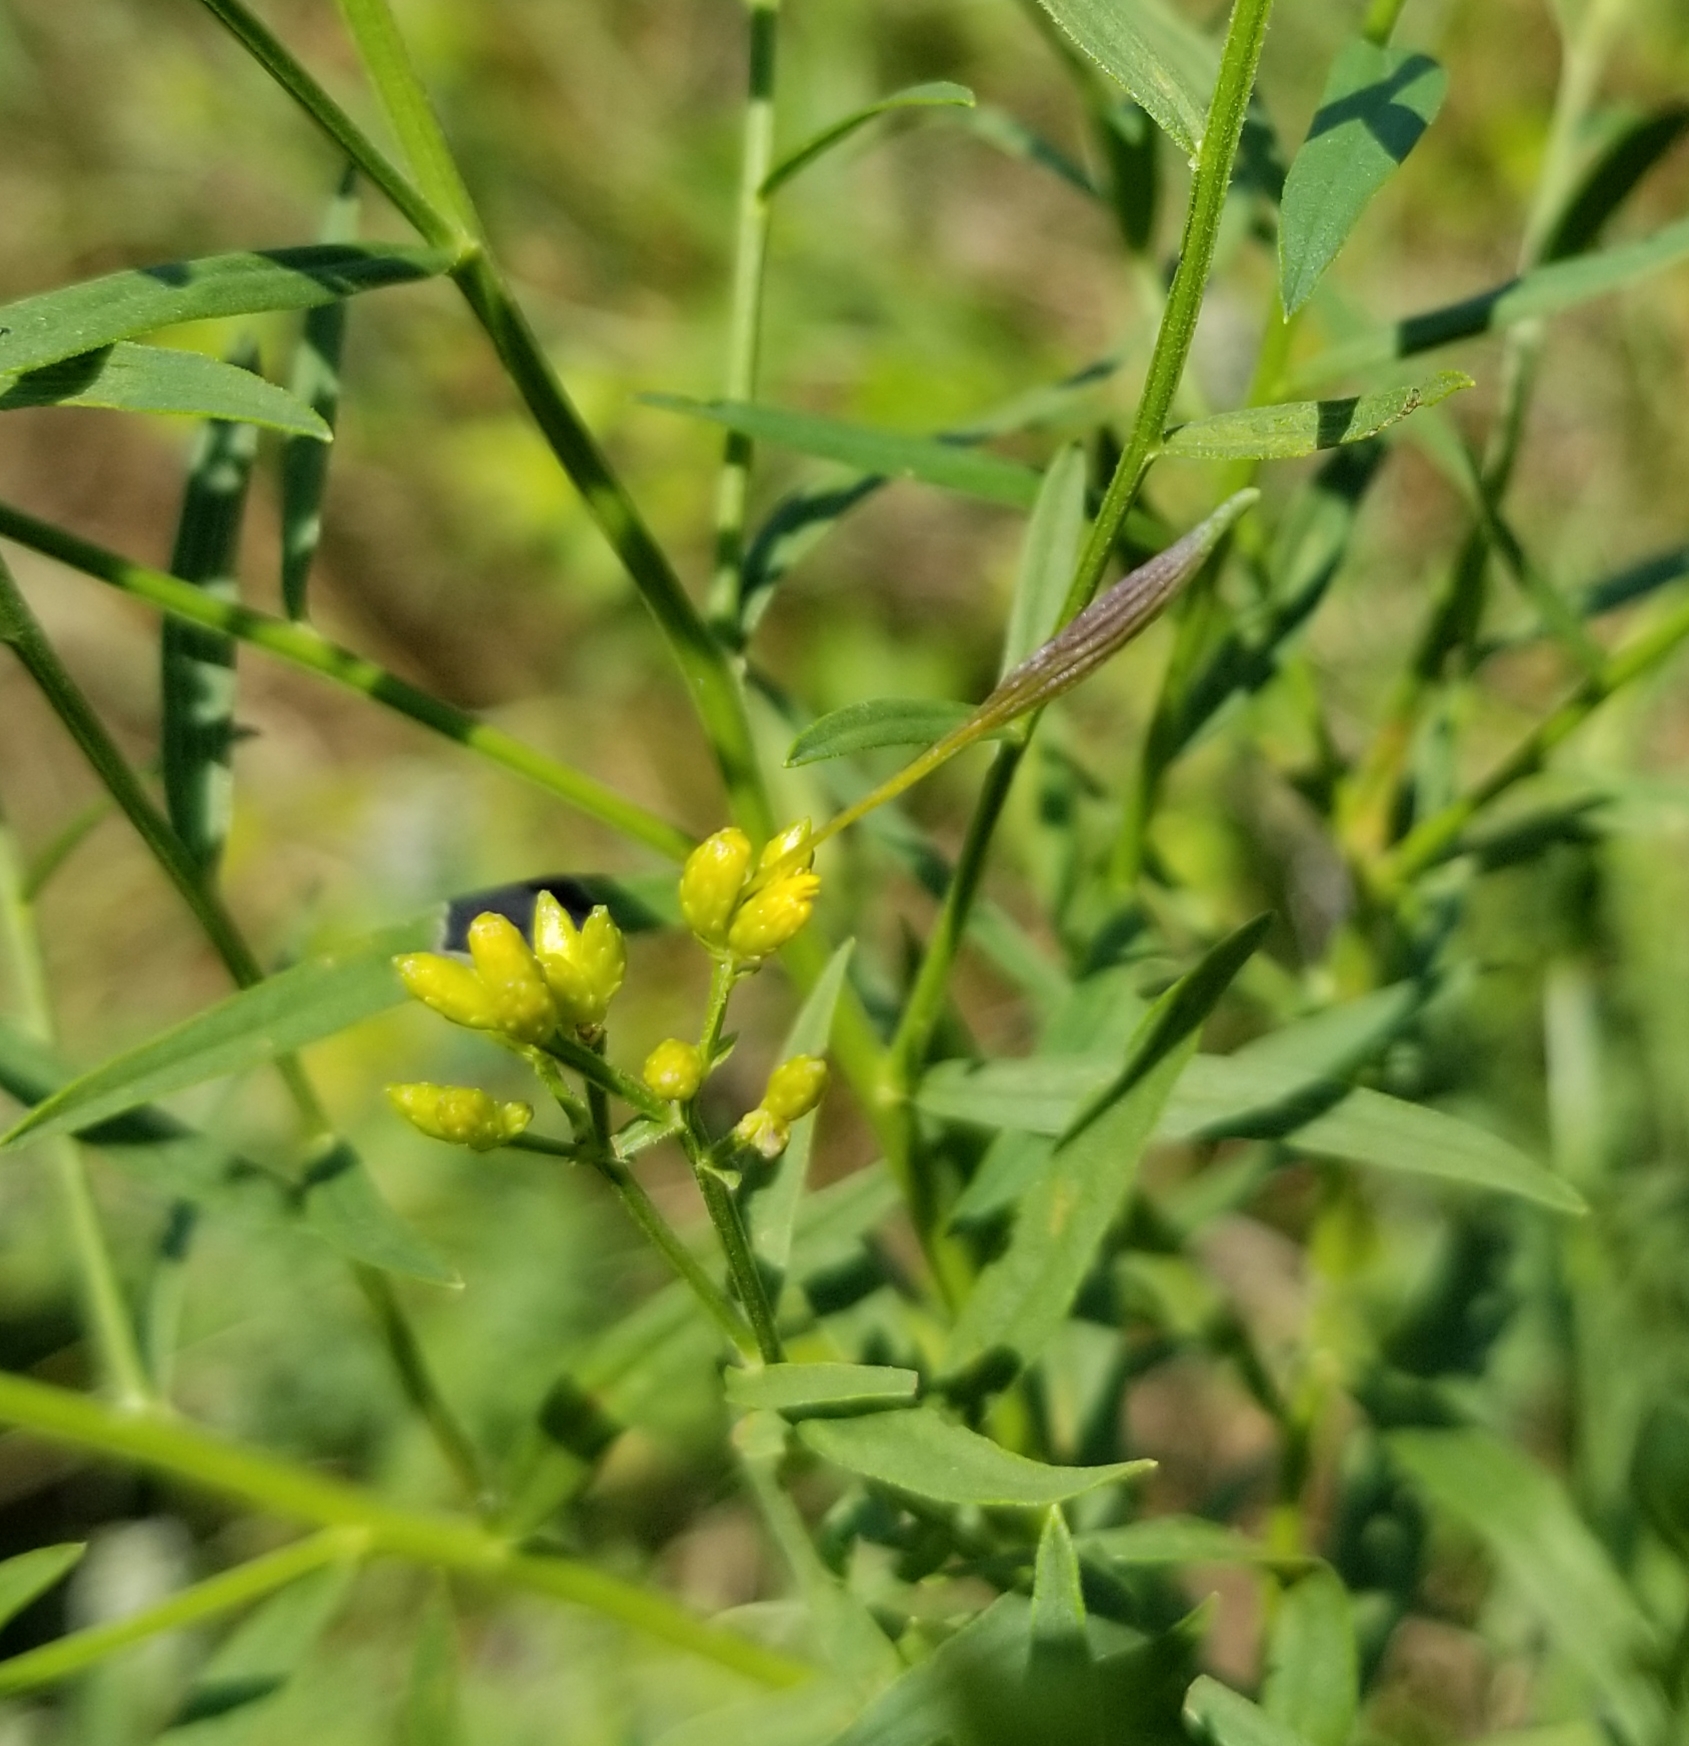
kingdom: Animalia
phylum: Arthropoda
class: Insecta
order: Diptera
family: Cecidomyiidae
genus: Rhopalomyia
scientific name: Rhopalomyia pedicellata
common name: Goldentop pedicellate gall midge
